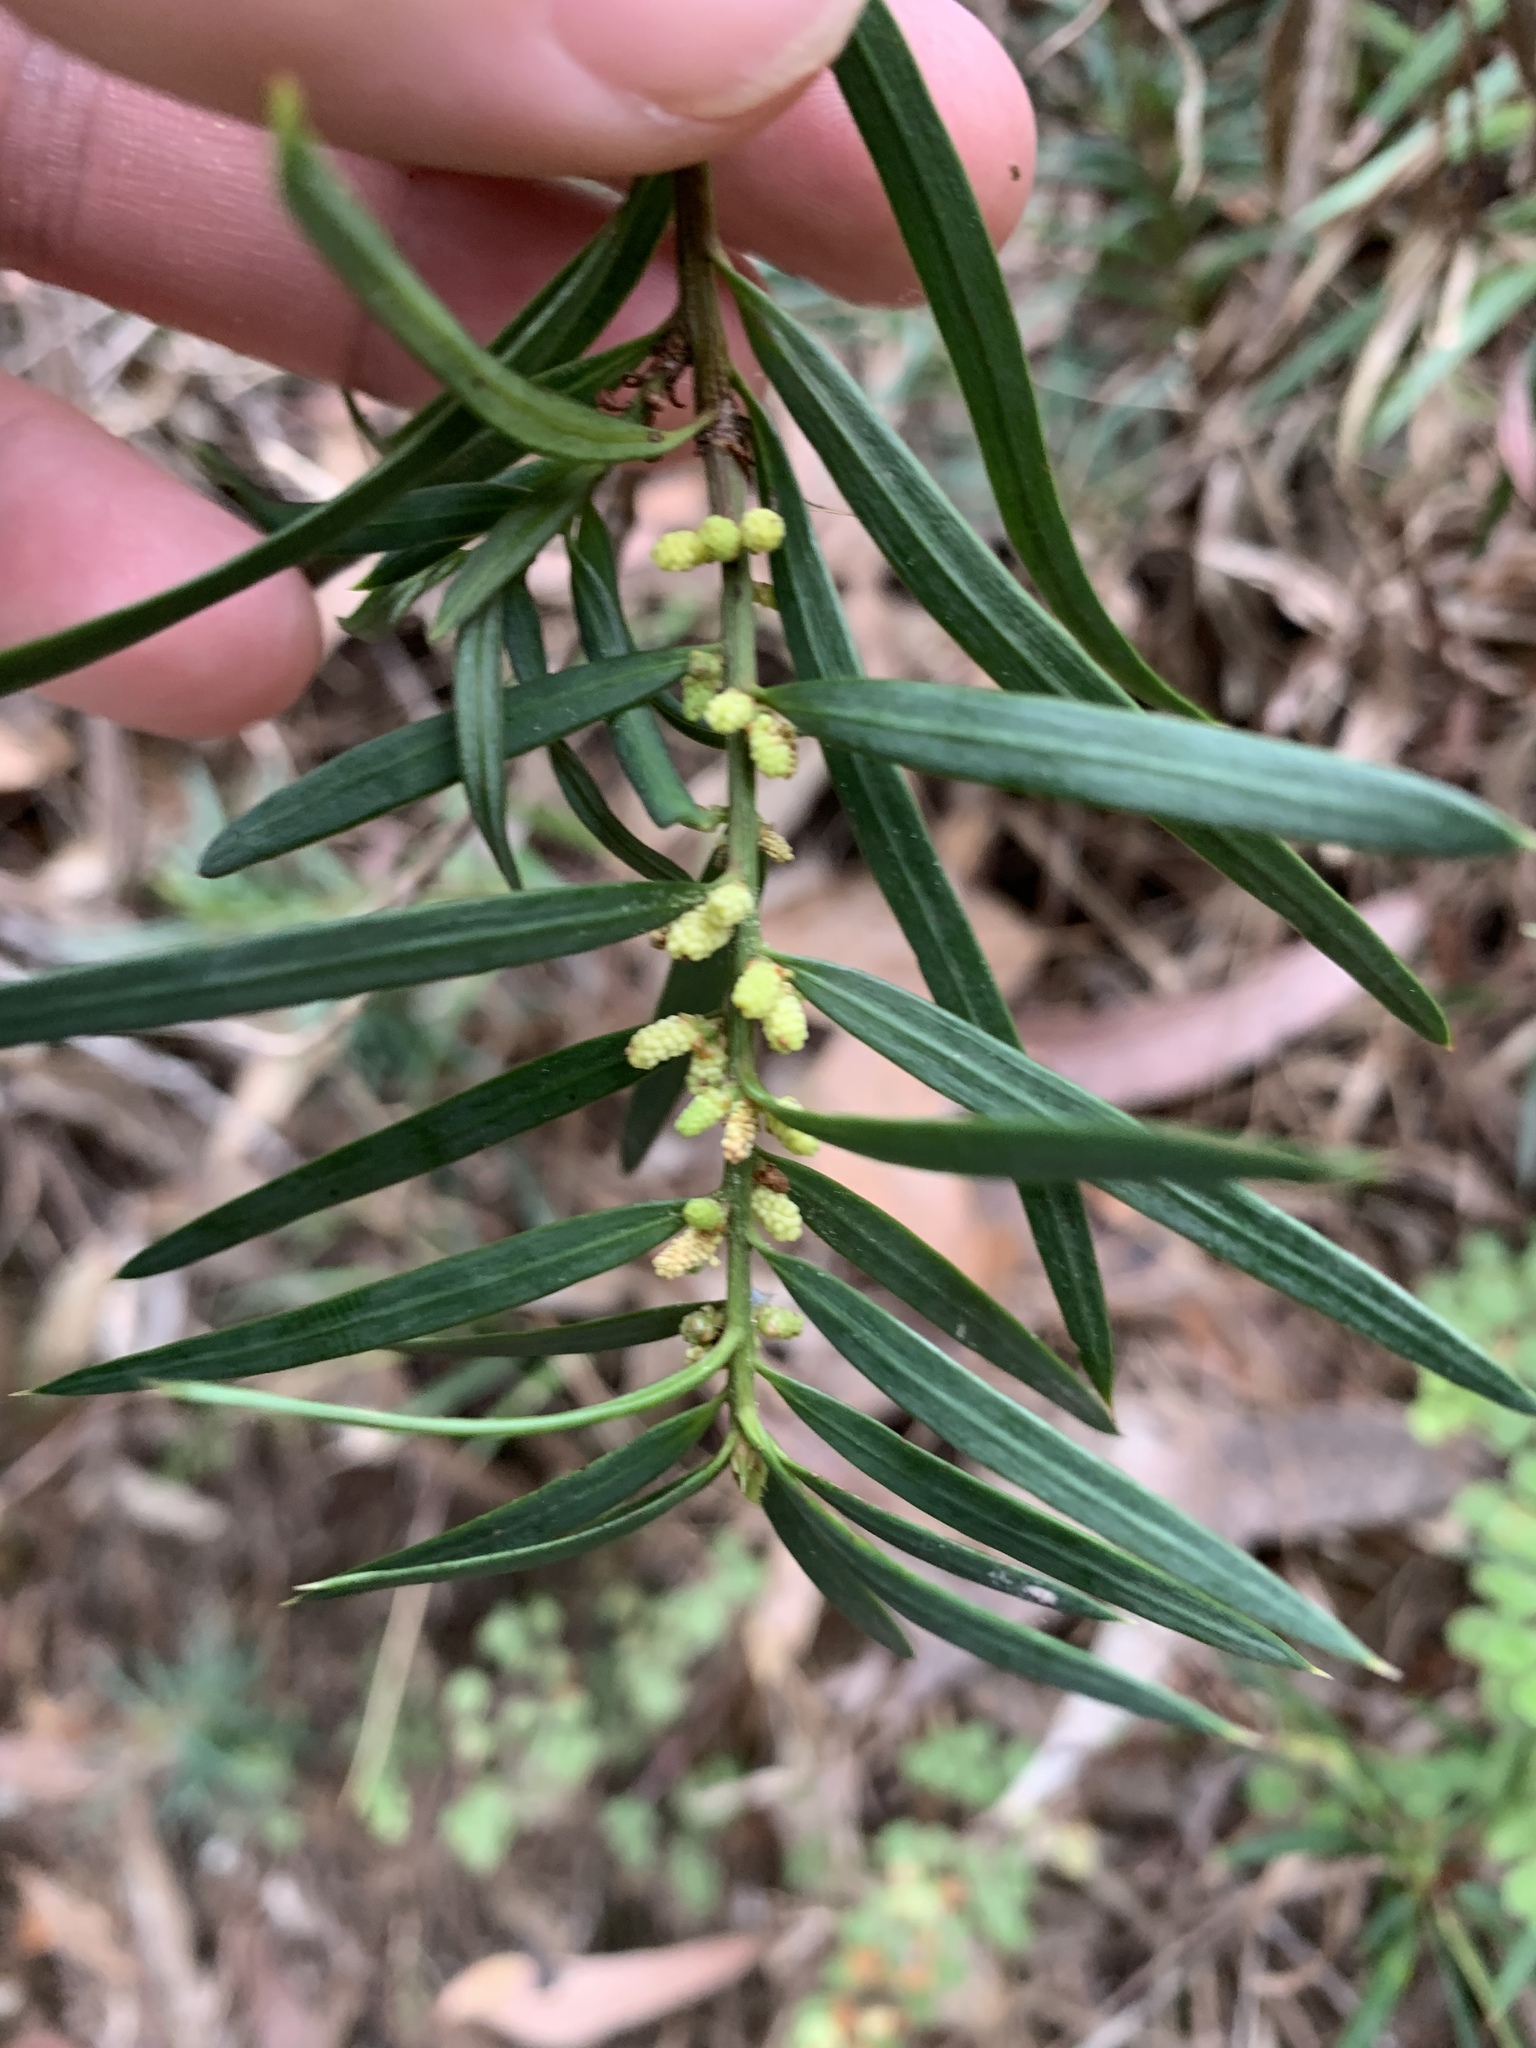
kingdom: Plantae
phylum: Tracheophyta
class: Pinopsida
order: Pinales
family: Podocarpaceae
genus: Podocarpus
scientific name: Podocarpus spinulosus
